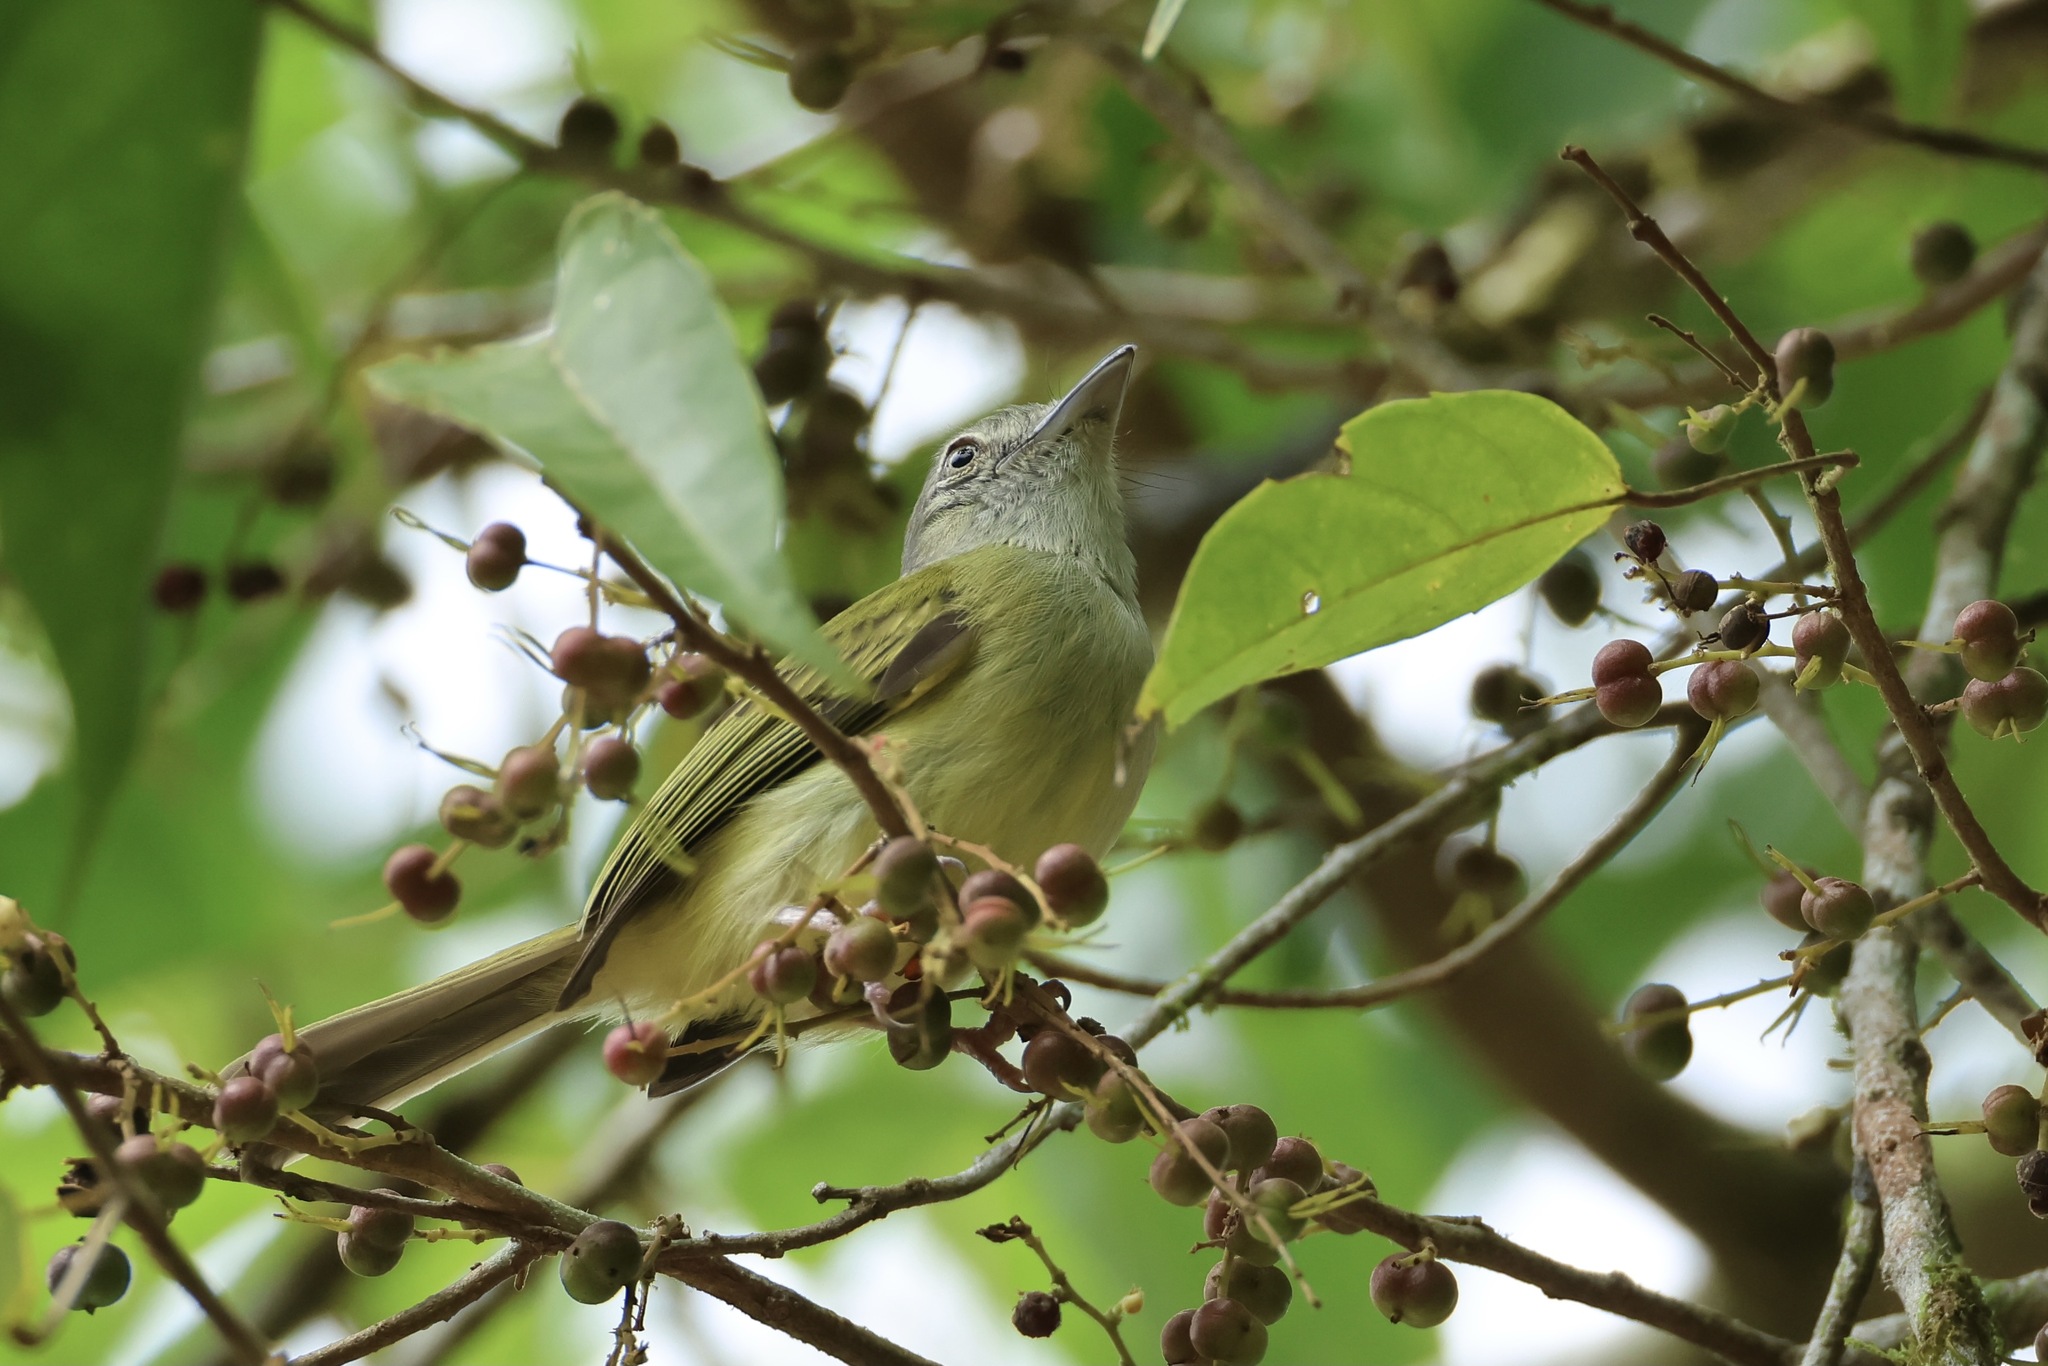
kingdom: Animalia
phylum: Chordata
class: Aves
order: Passeriformes
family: Tyrannidae
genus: Tolmomyias
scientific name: Tolmomyias sulphurescens
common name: Yellow-olive flycatcher
